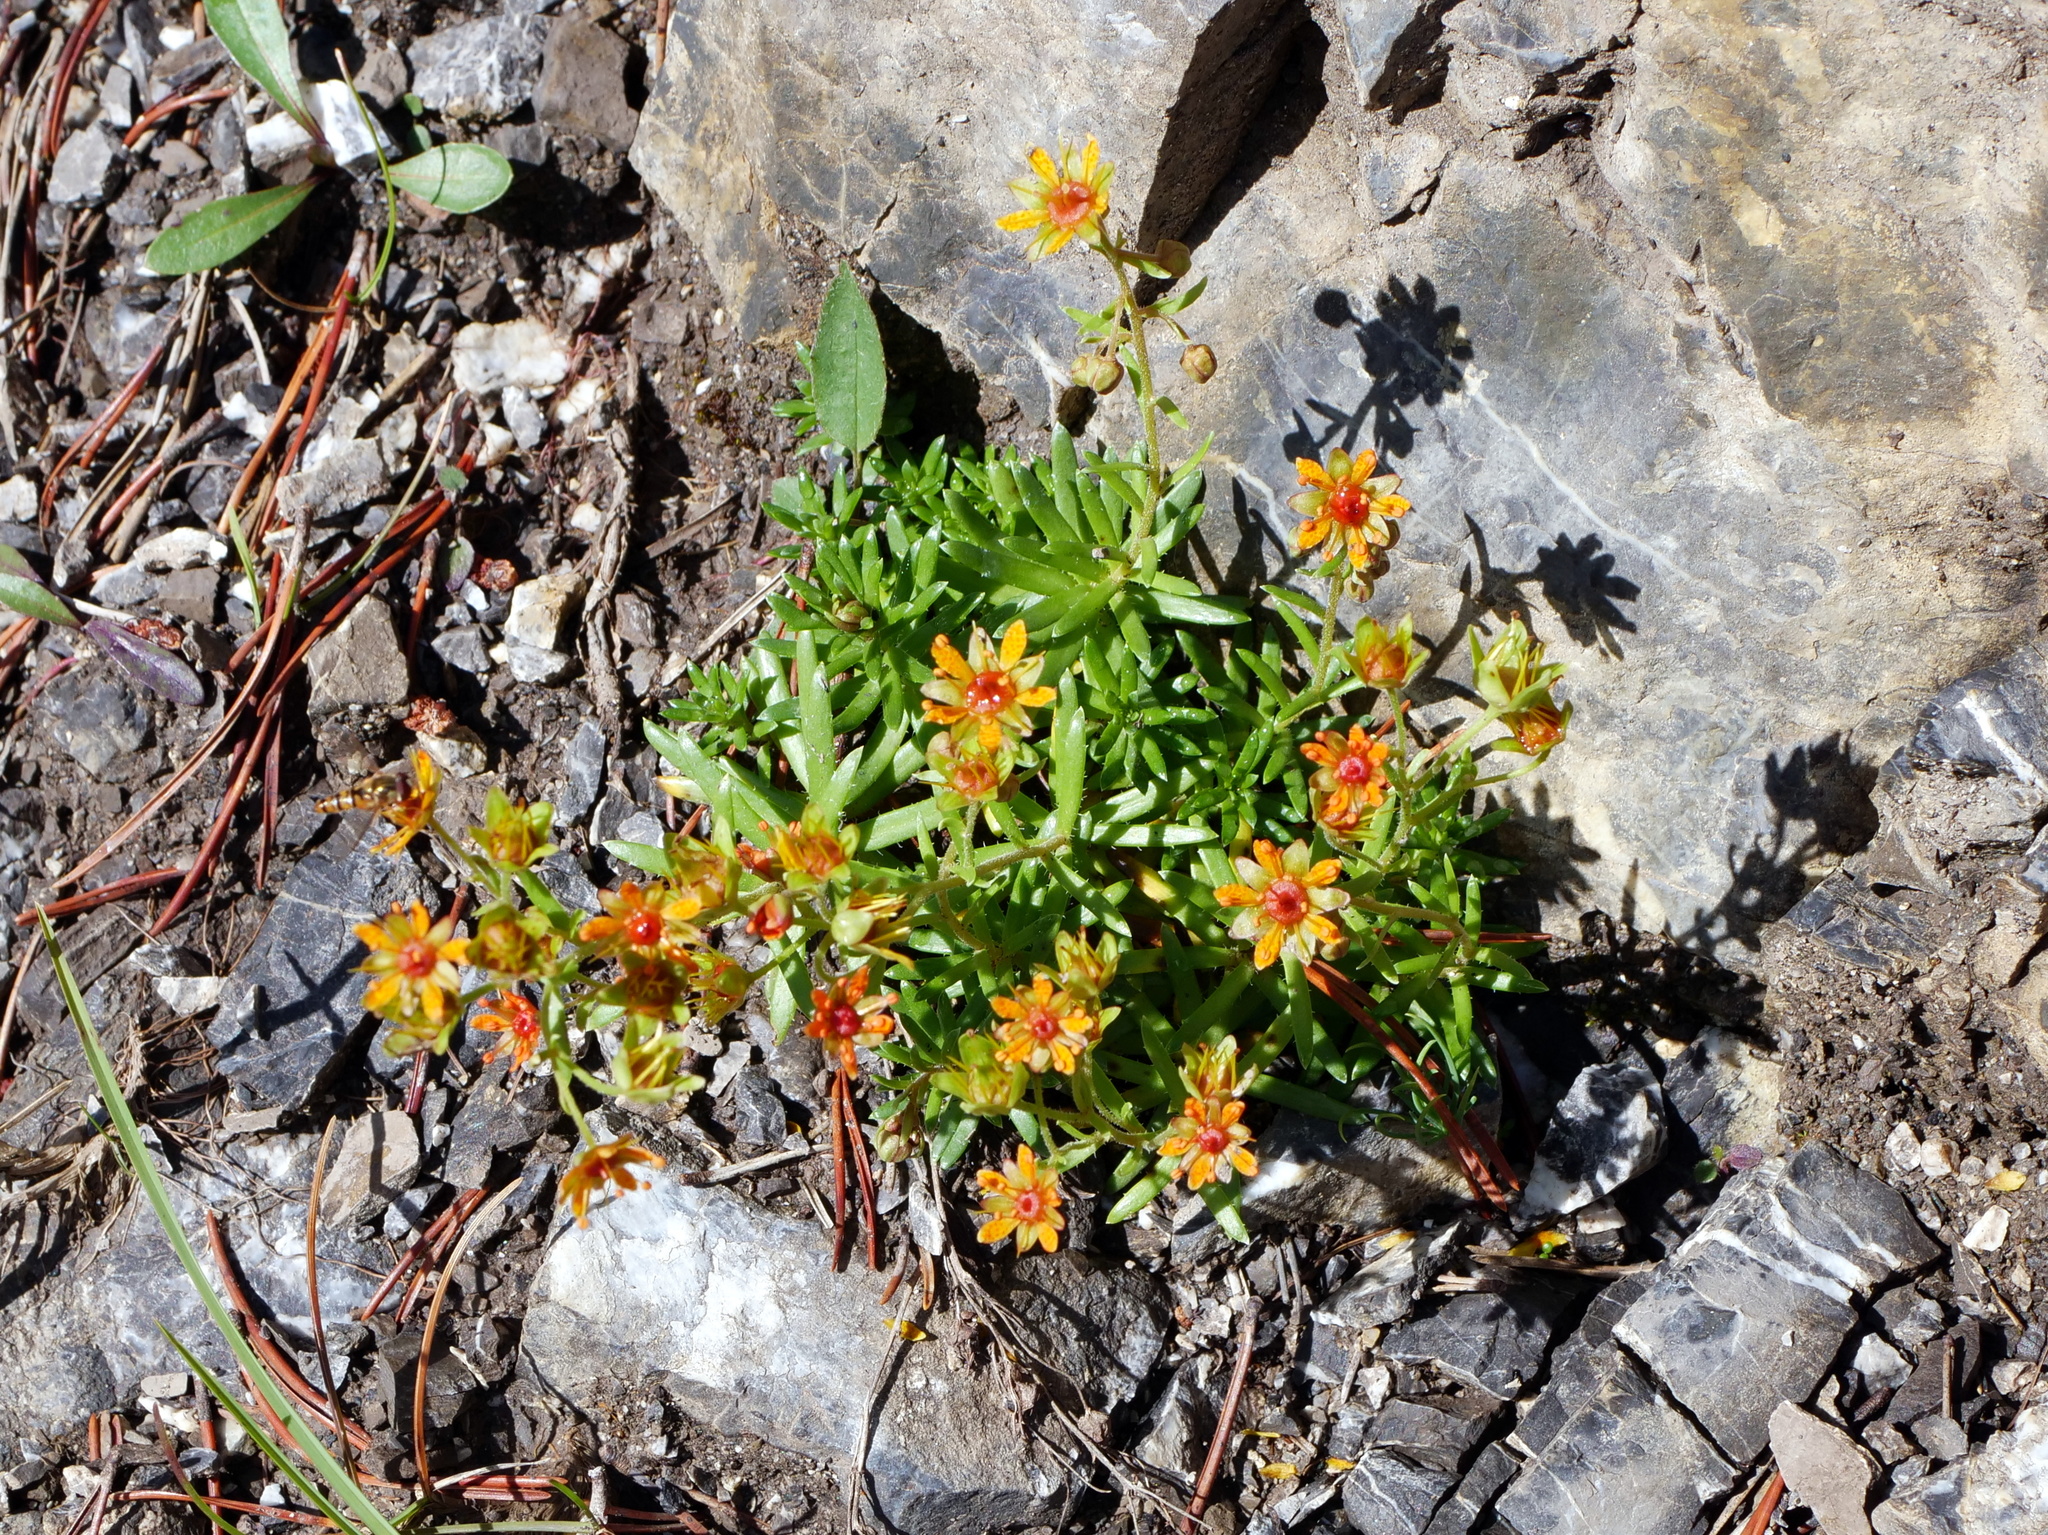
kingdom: Plantae
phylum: Tracheophyta
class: Magnoliopsida
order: Saxifragales
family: Saxifragaceae
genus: Saxifraga
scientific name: Saxifraga aizoides
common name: Yellow mountain saxifrage
